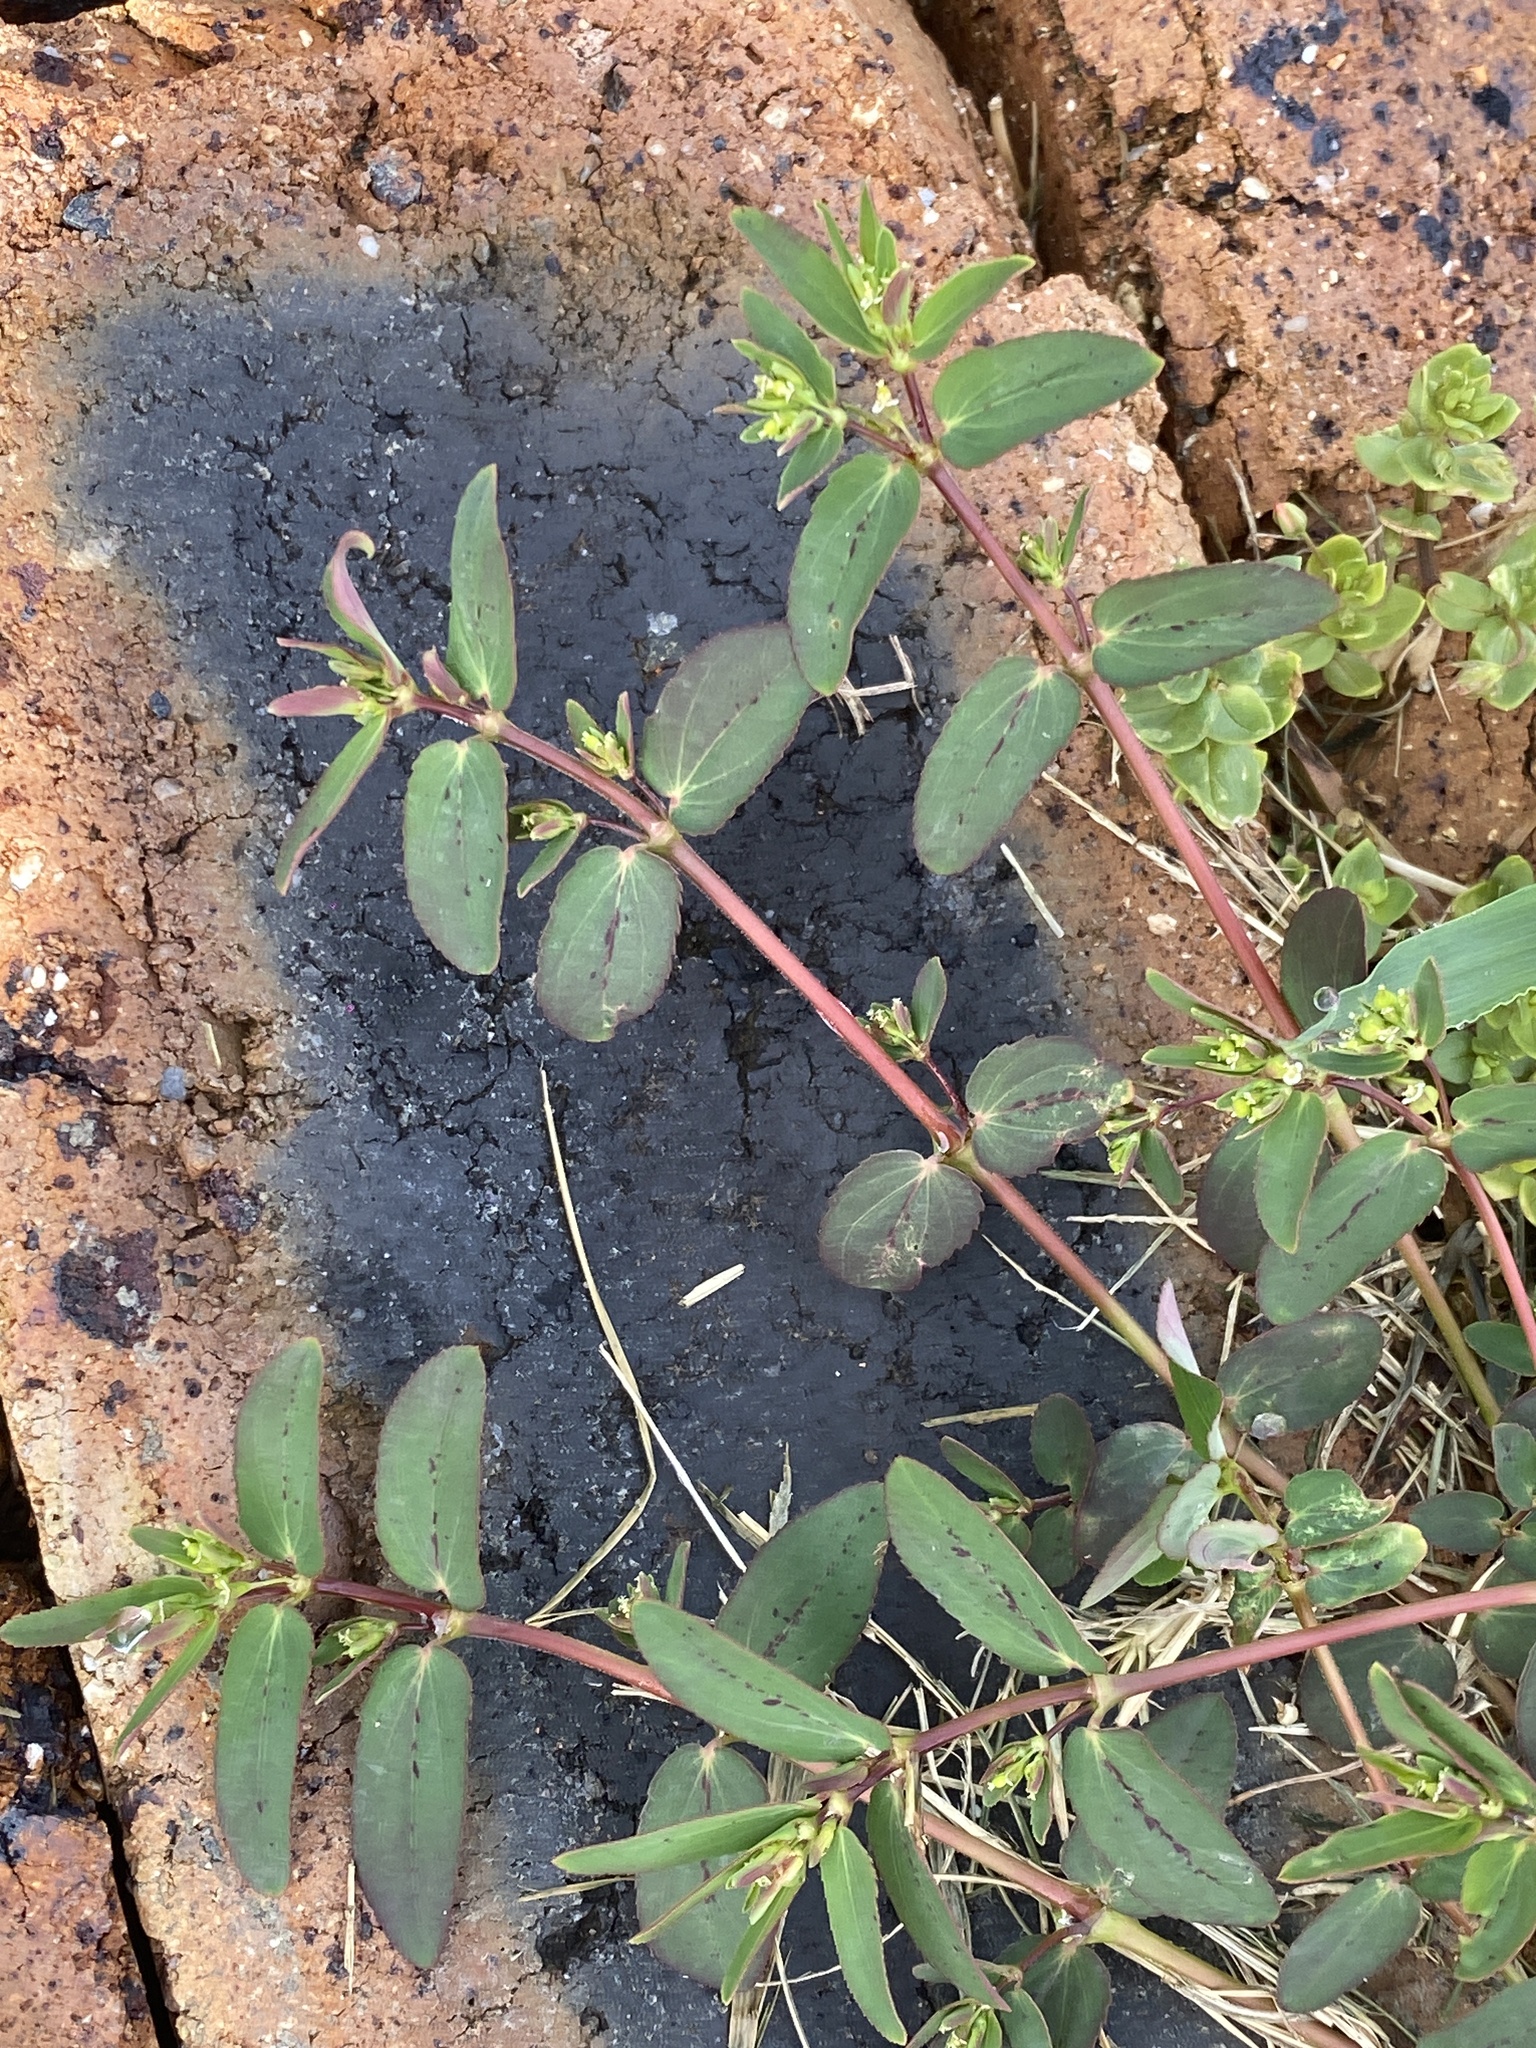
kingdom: Plantae
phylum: Tracheophyta
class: Magnoliopsida
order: Malpighiales
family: Euphorbiaceae
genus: Euphorbia
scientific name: Euphorbia hyssopifolia
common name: Hyssopleaf sandmat
